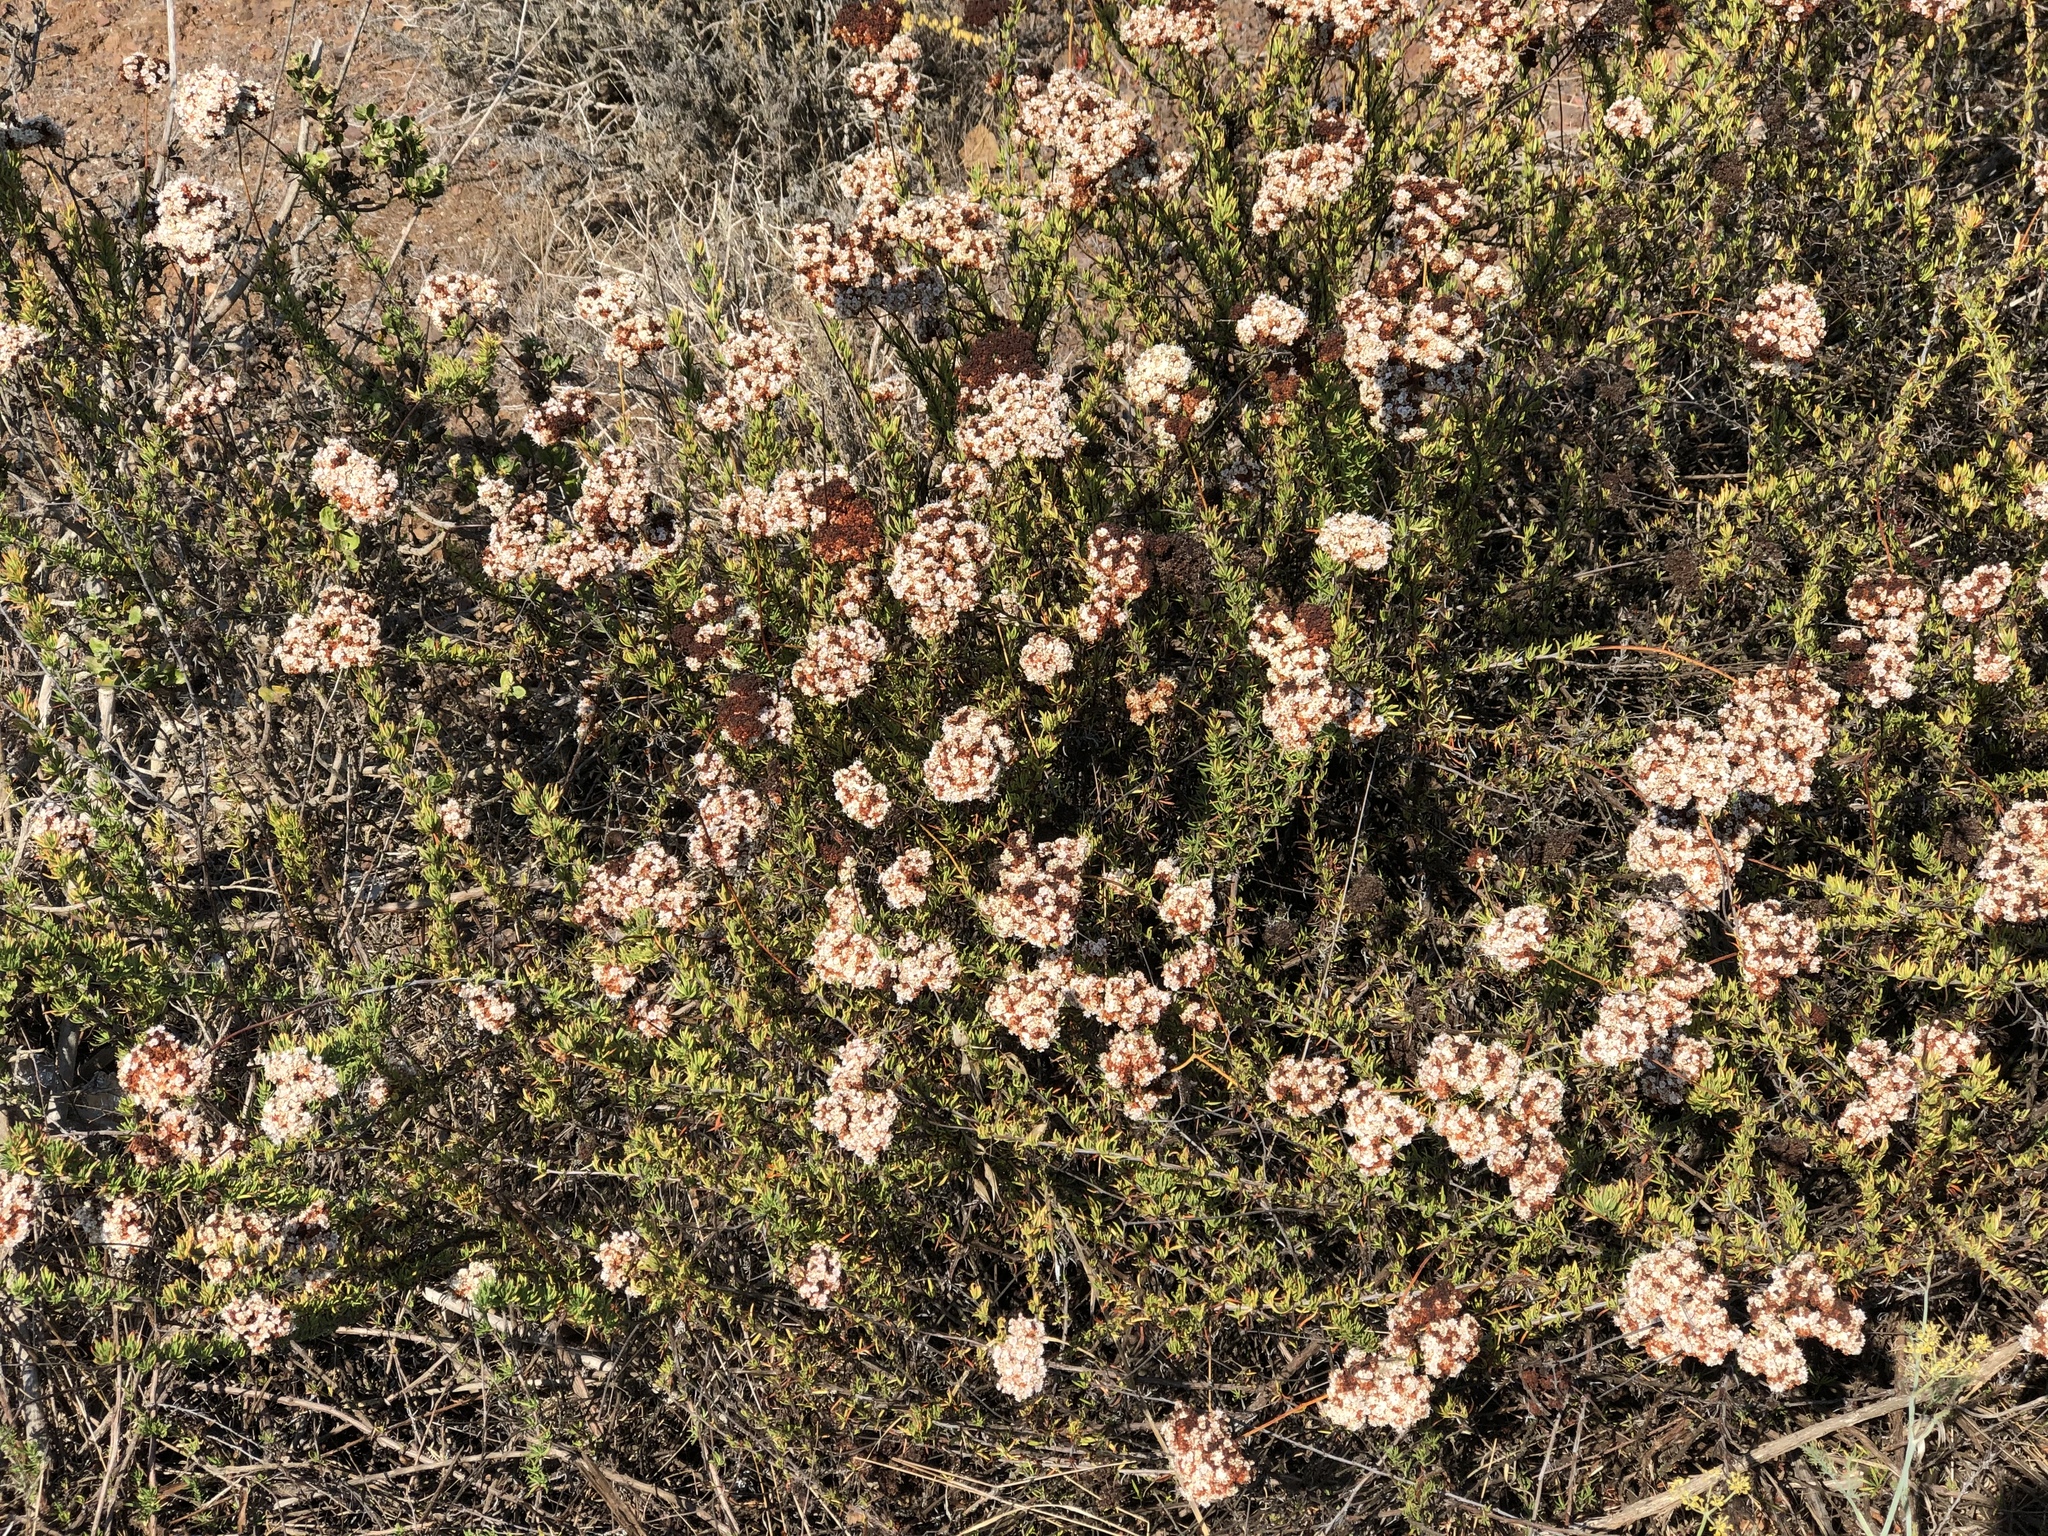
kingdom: Plantae
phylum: Tracheophyta
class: Magnoliopsida
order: Caryophyllales
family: Polygonaceae
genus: Eriogonum
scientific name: Eriogonum fasciculatum
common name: California wild buckwheat
